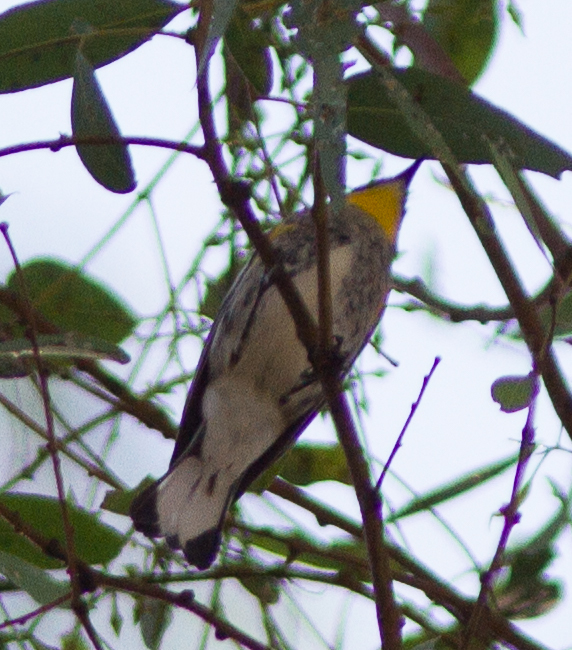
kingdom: Animalia
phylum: Chordata
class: Aves
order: Passeriformes
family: Parulidae
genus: Setophaga
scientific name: Setophaga auduboni
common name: Audubon's warbler
